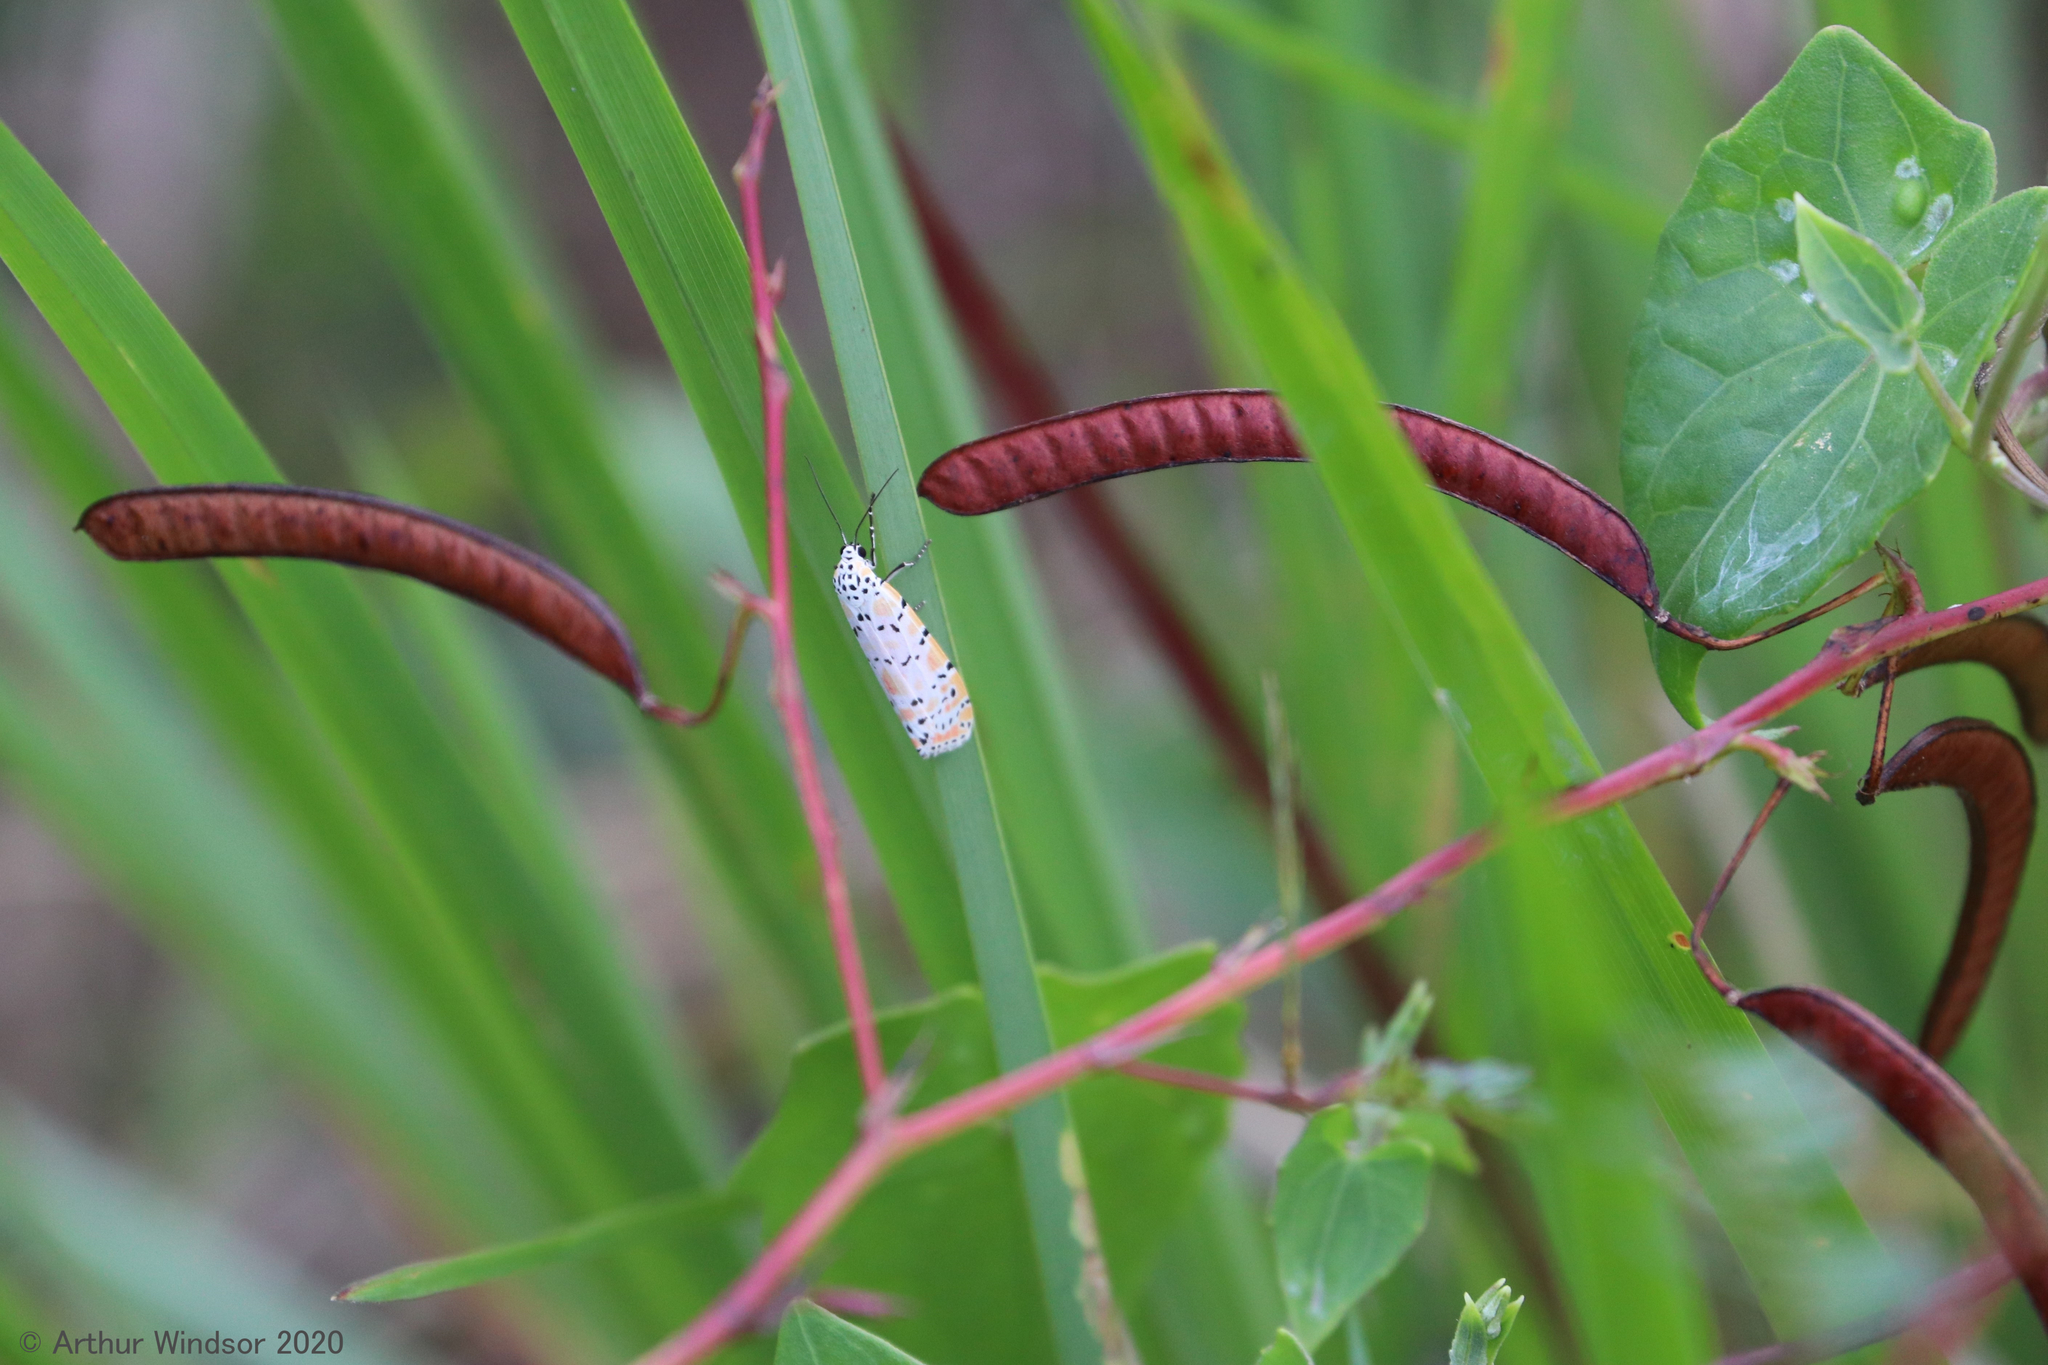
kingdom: Animalia
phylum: Arthropoda
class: Insecta
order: Lepidoptera
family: Erebidae
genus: Utetheisa
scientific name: Utetheisa ornatrix
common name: Beautiful utetheisa
